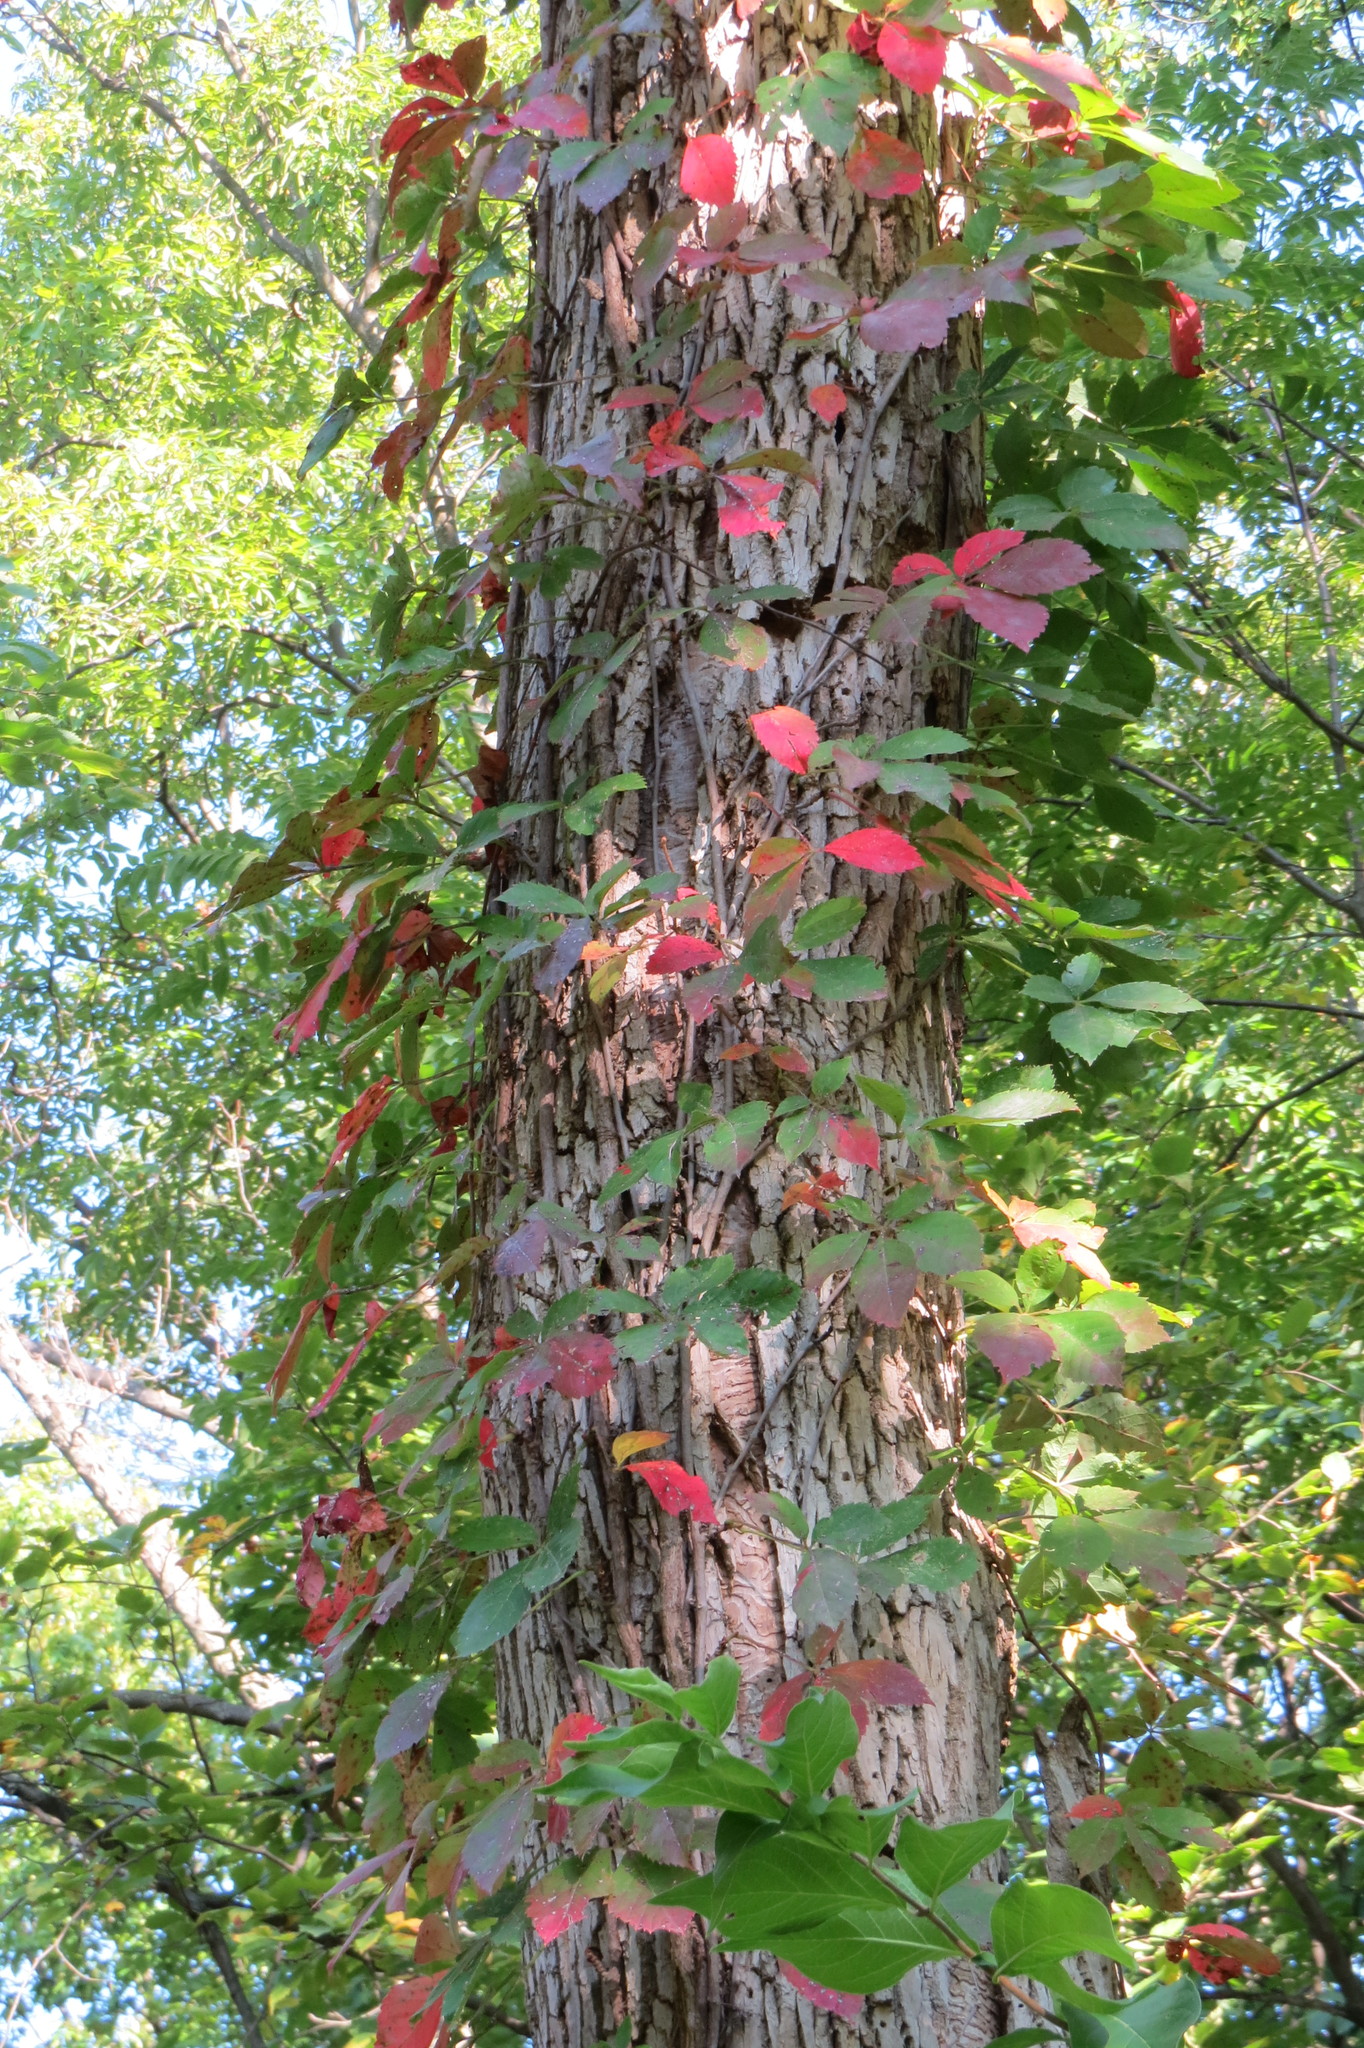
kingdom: Plantae
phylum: Tracheophyta
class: Magnoliopsida
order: Vitales
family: Vitaceae
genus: Parthenocissus
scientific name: Parthenocissus quinquefolia
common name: Virginia-creeper
